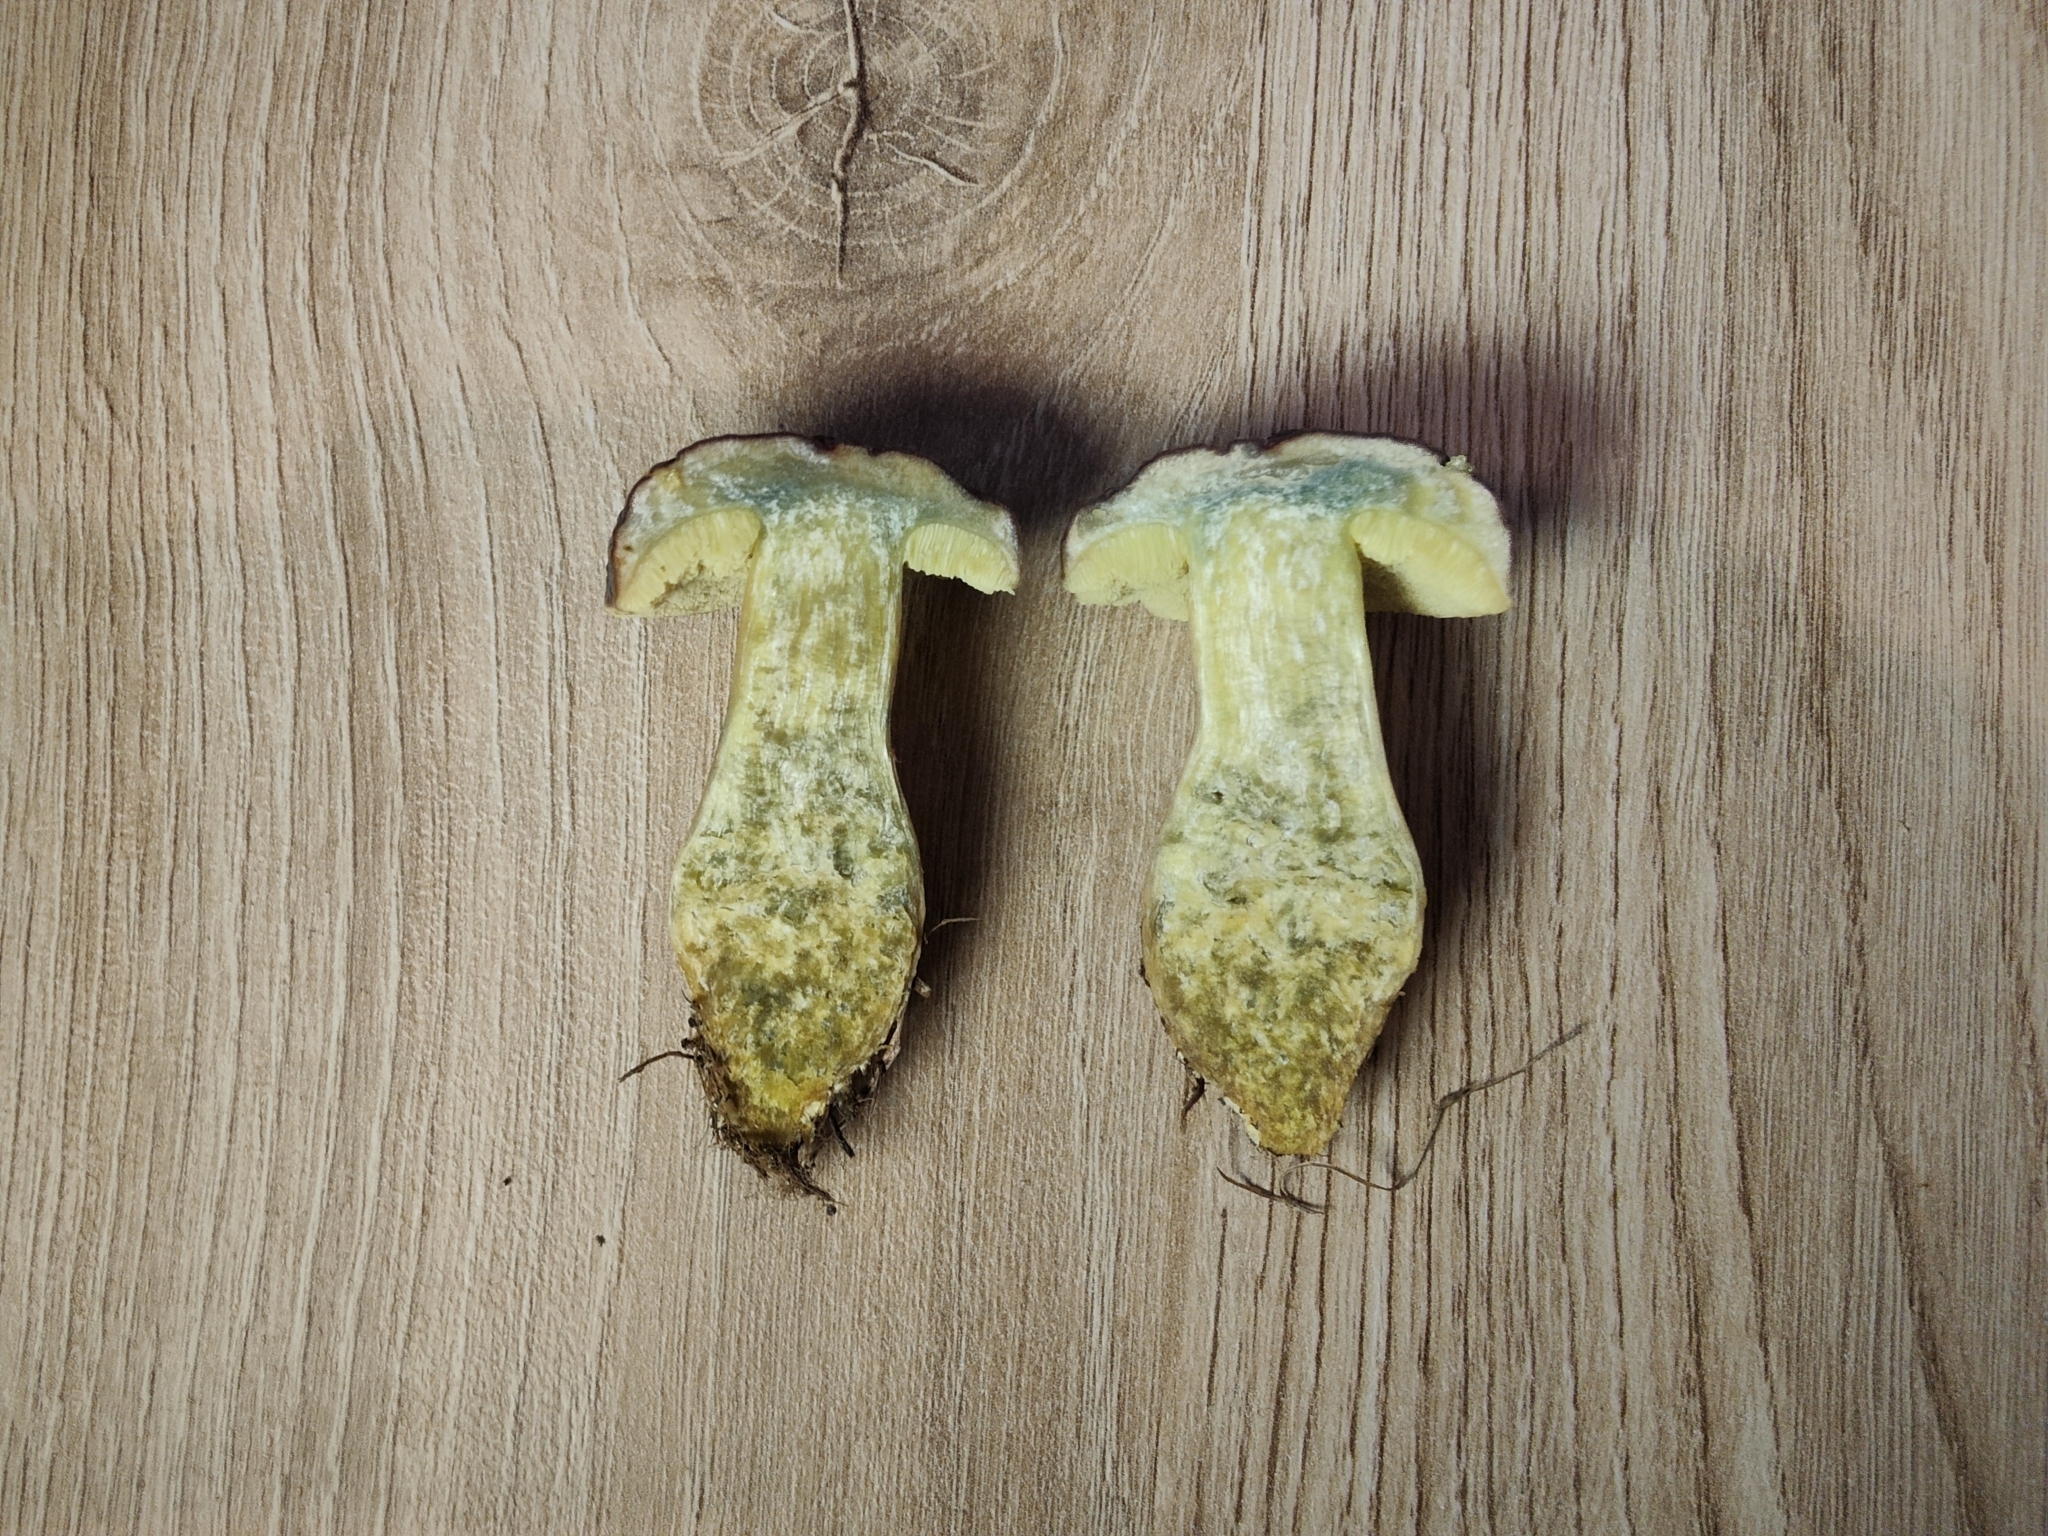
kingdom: Fungi
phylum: Basidiomycota
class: Agaricomycetes
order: Boletales
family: Boletaceae
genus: Hortiboletus
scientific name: Hortiboletus engelii
